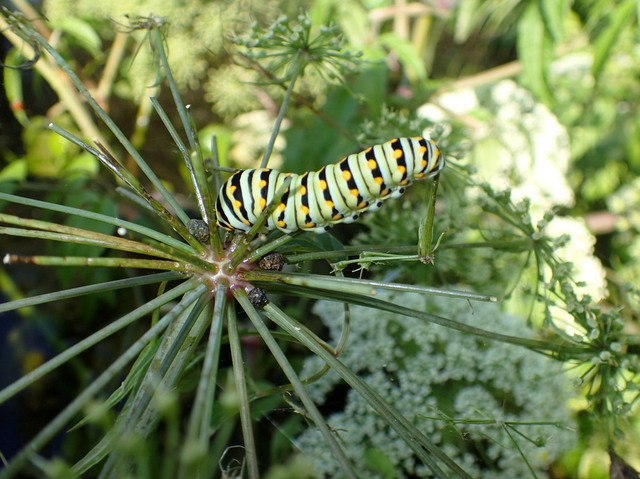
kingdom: Animalia
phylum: Arthropoda
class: Insecta
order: Lepidoptera
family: Papilionidae
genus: Papilio
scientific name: Papilio polyxenes
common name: Black swallowtail
